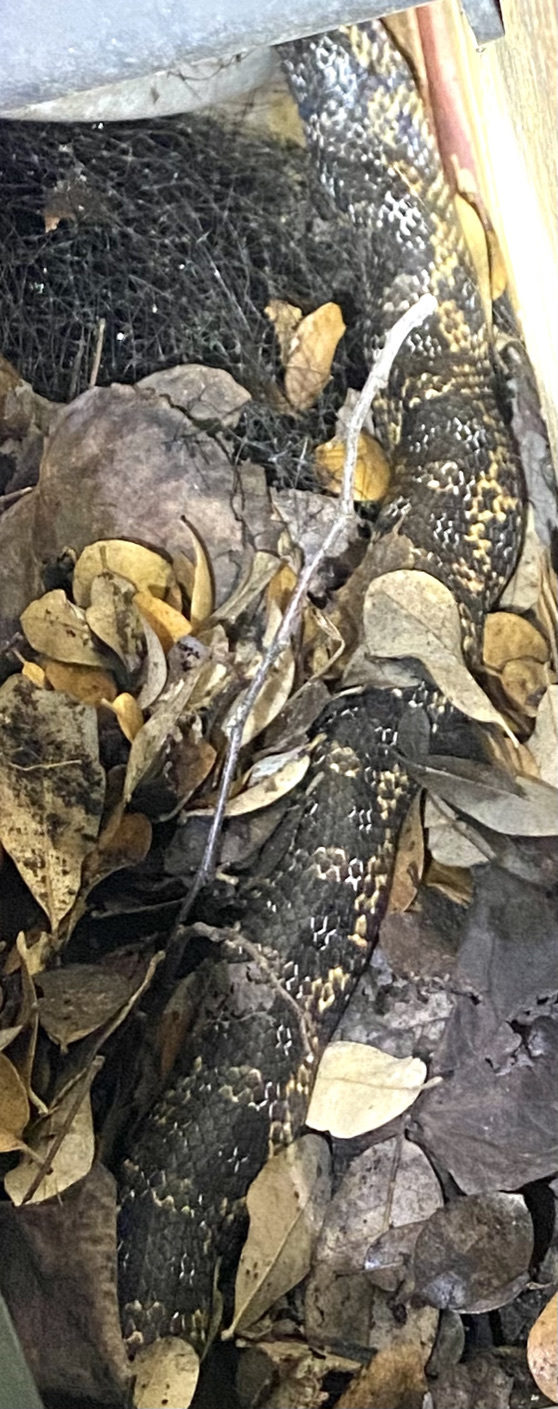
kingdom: Animalia
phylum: Chordata
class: Squamata
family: Colubridae
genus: Pantherophis
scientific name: Pantherophis obsoletus
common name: Black rat snake
